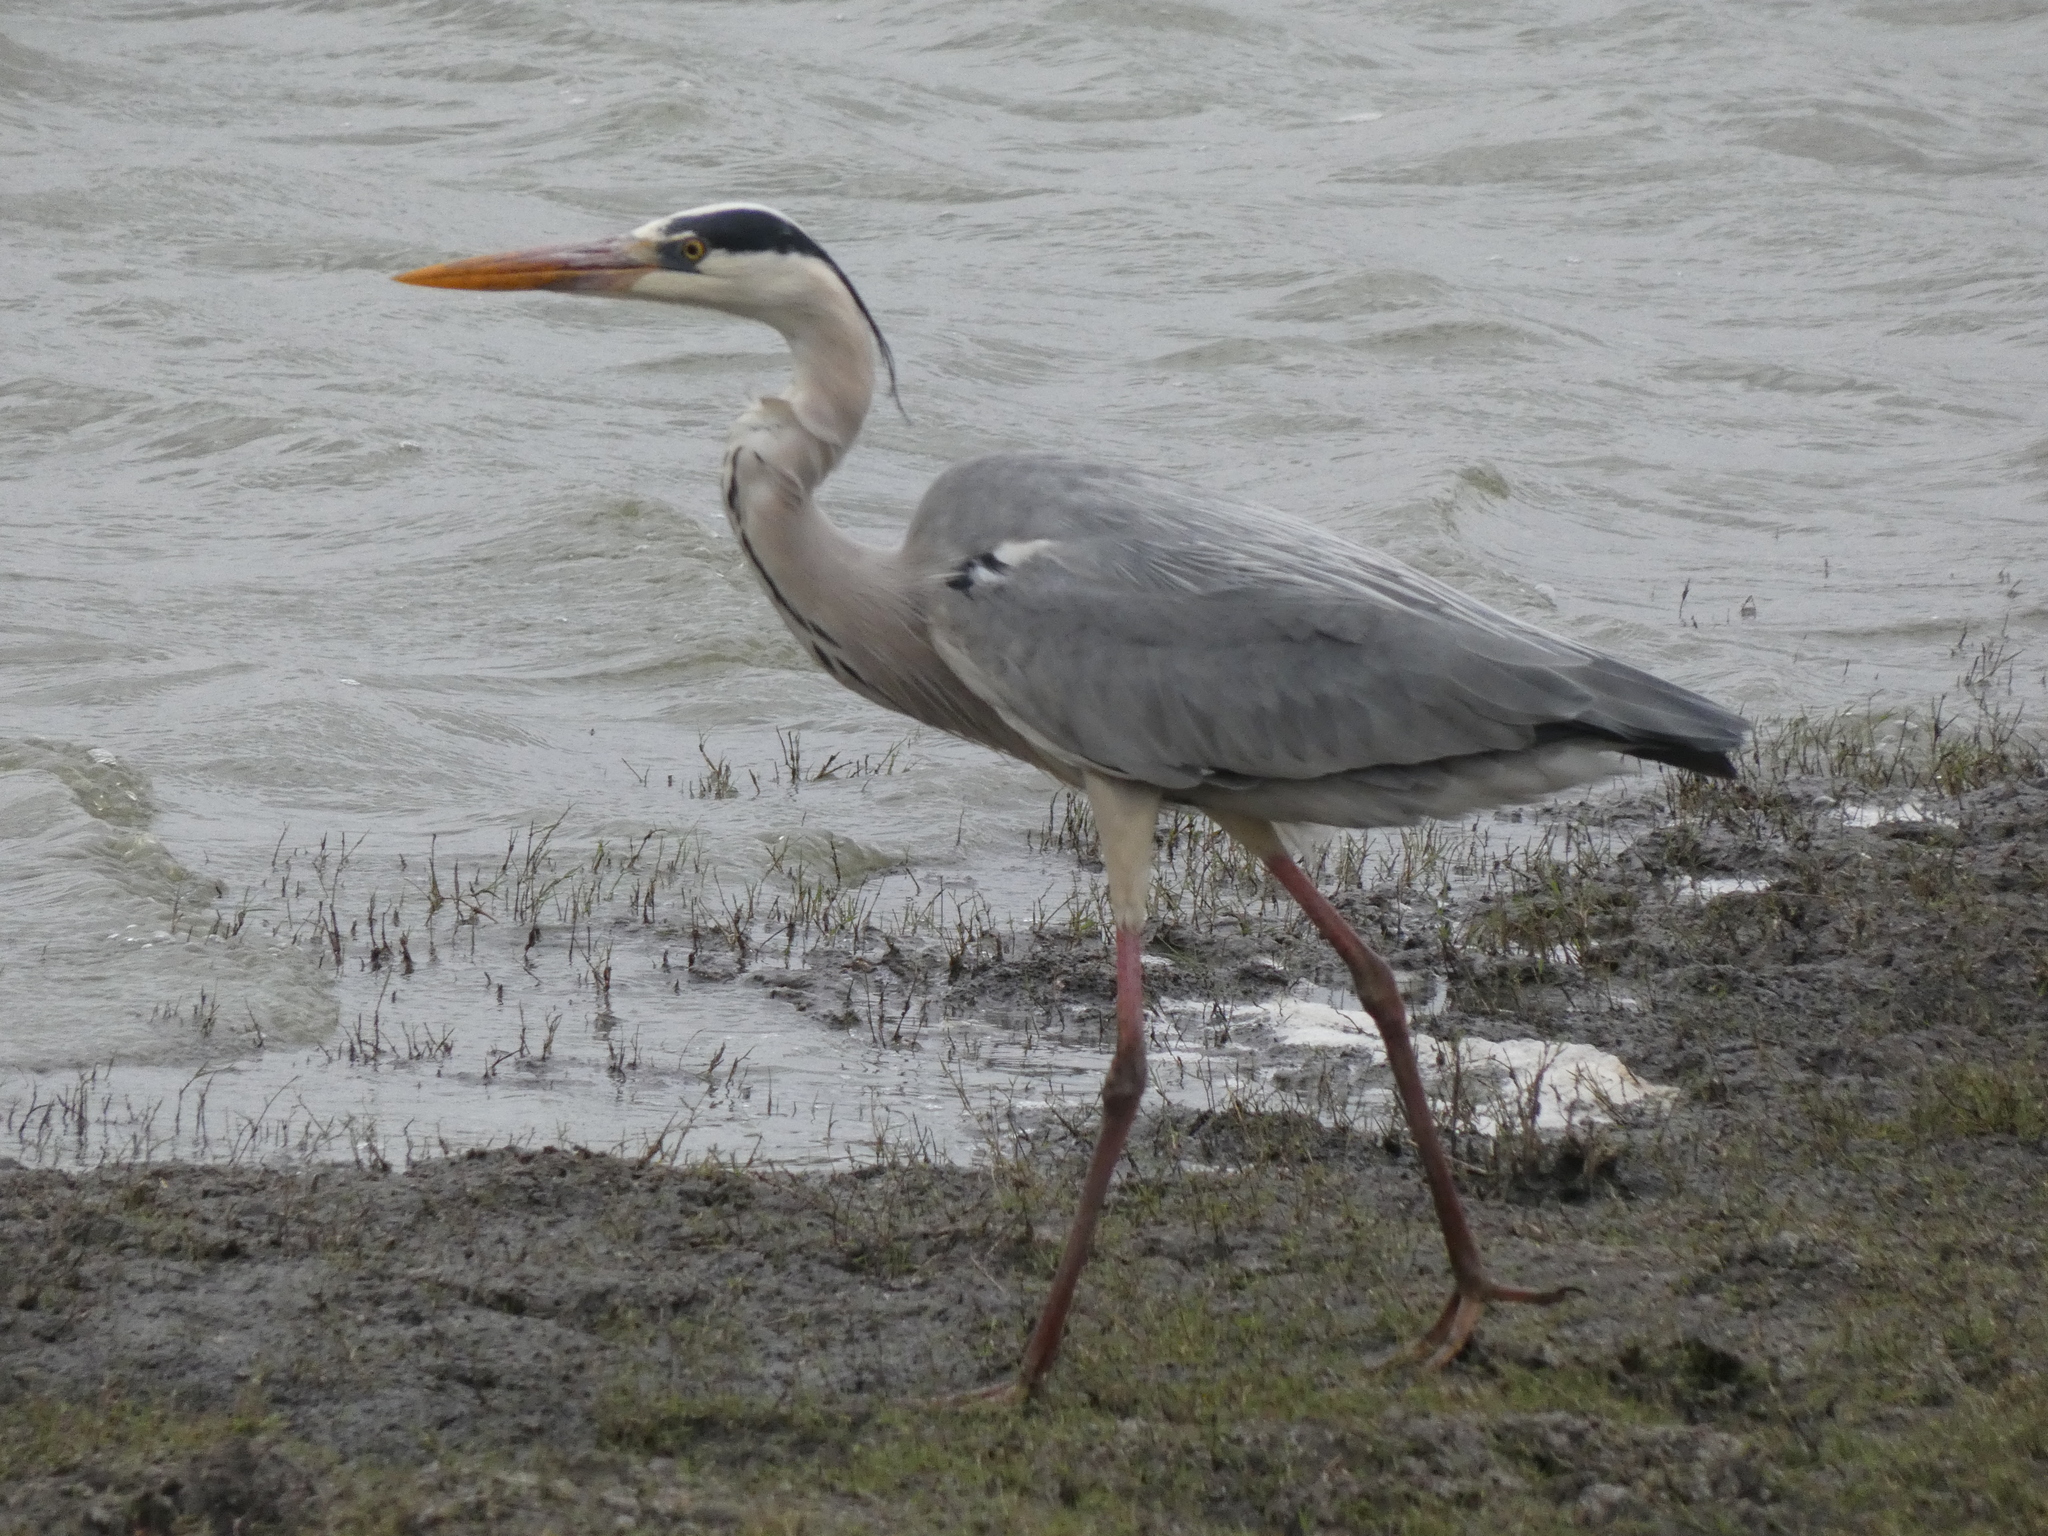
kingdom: Animalia
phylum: Chordata
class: Aves
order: Pelecaniformes
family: Ardeidae
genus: Ardea
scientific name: Ardea cinerea
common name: Grey heron
